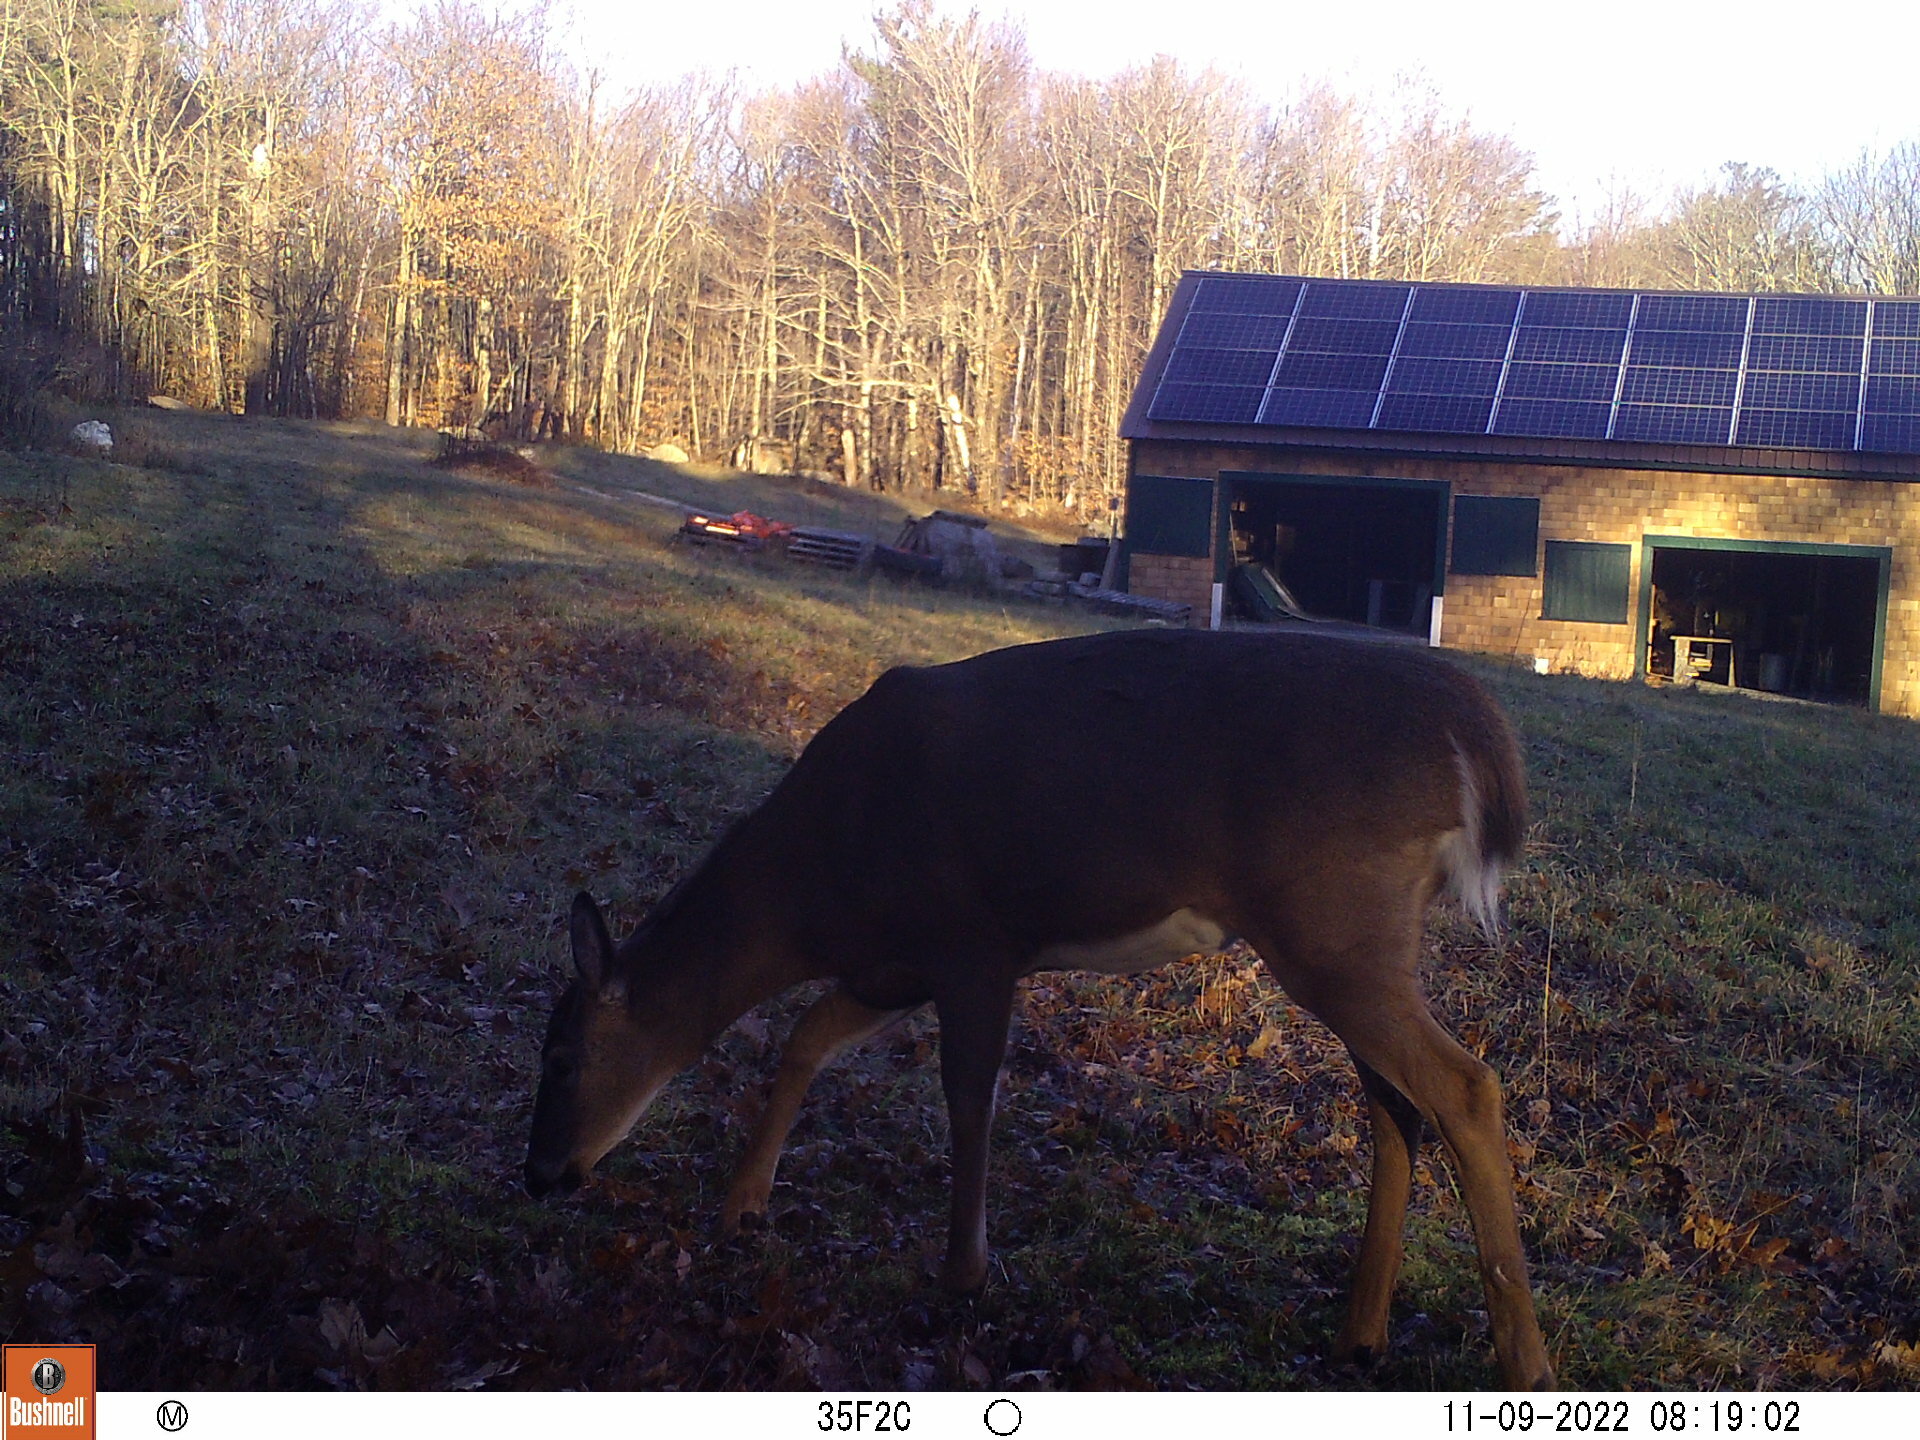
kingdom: Animalia
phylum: Chordata
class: Mammalia
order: Artiodactyla
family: Cervidae
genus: Odocoileus
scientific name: Odocoileus virginianus
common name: White-tailed deer
